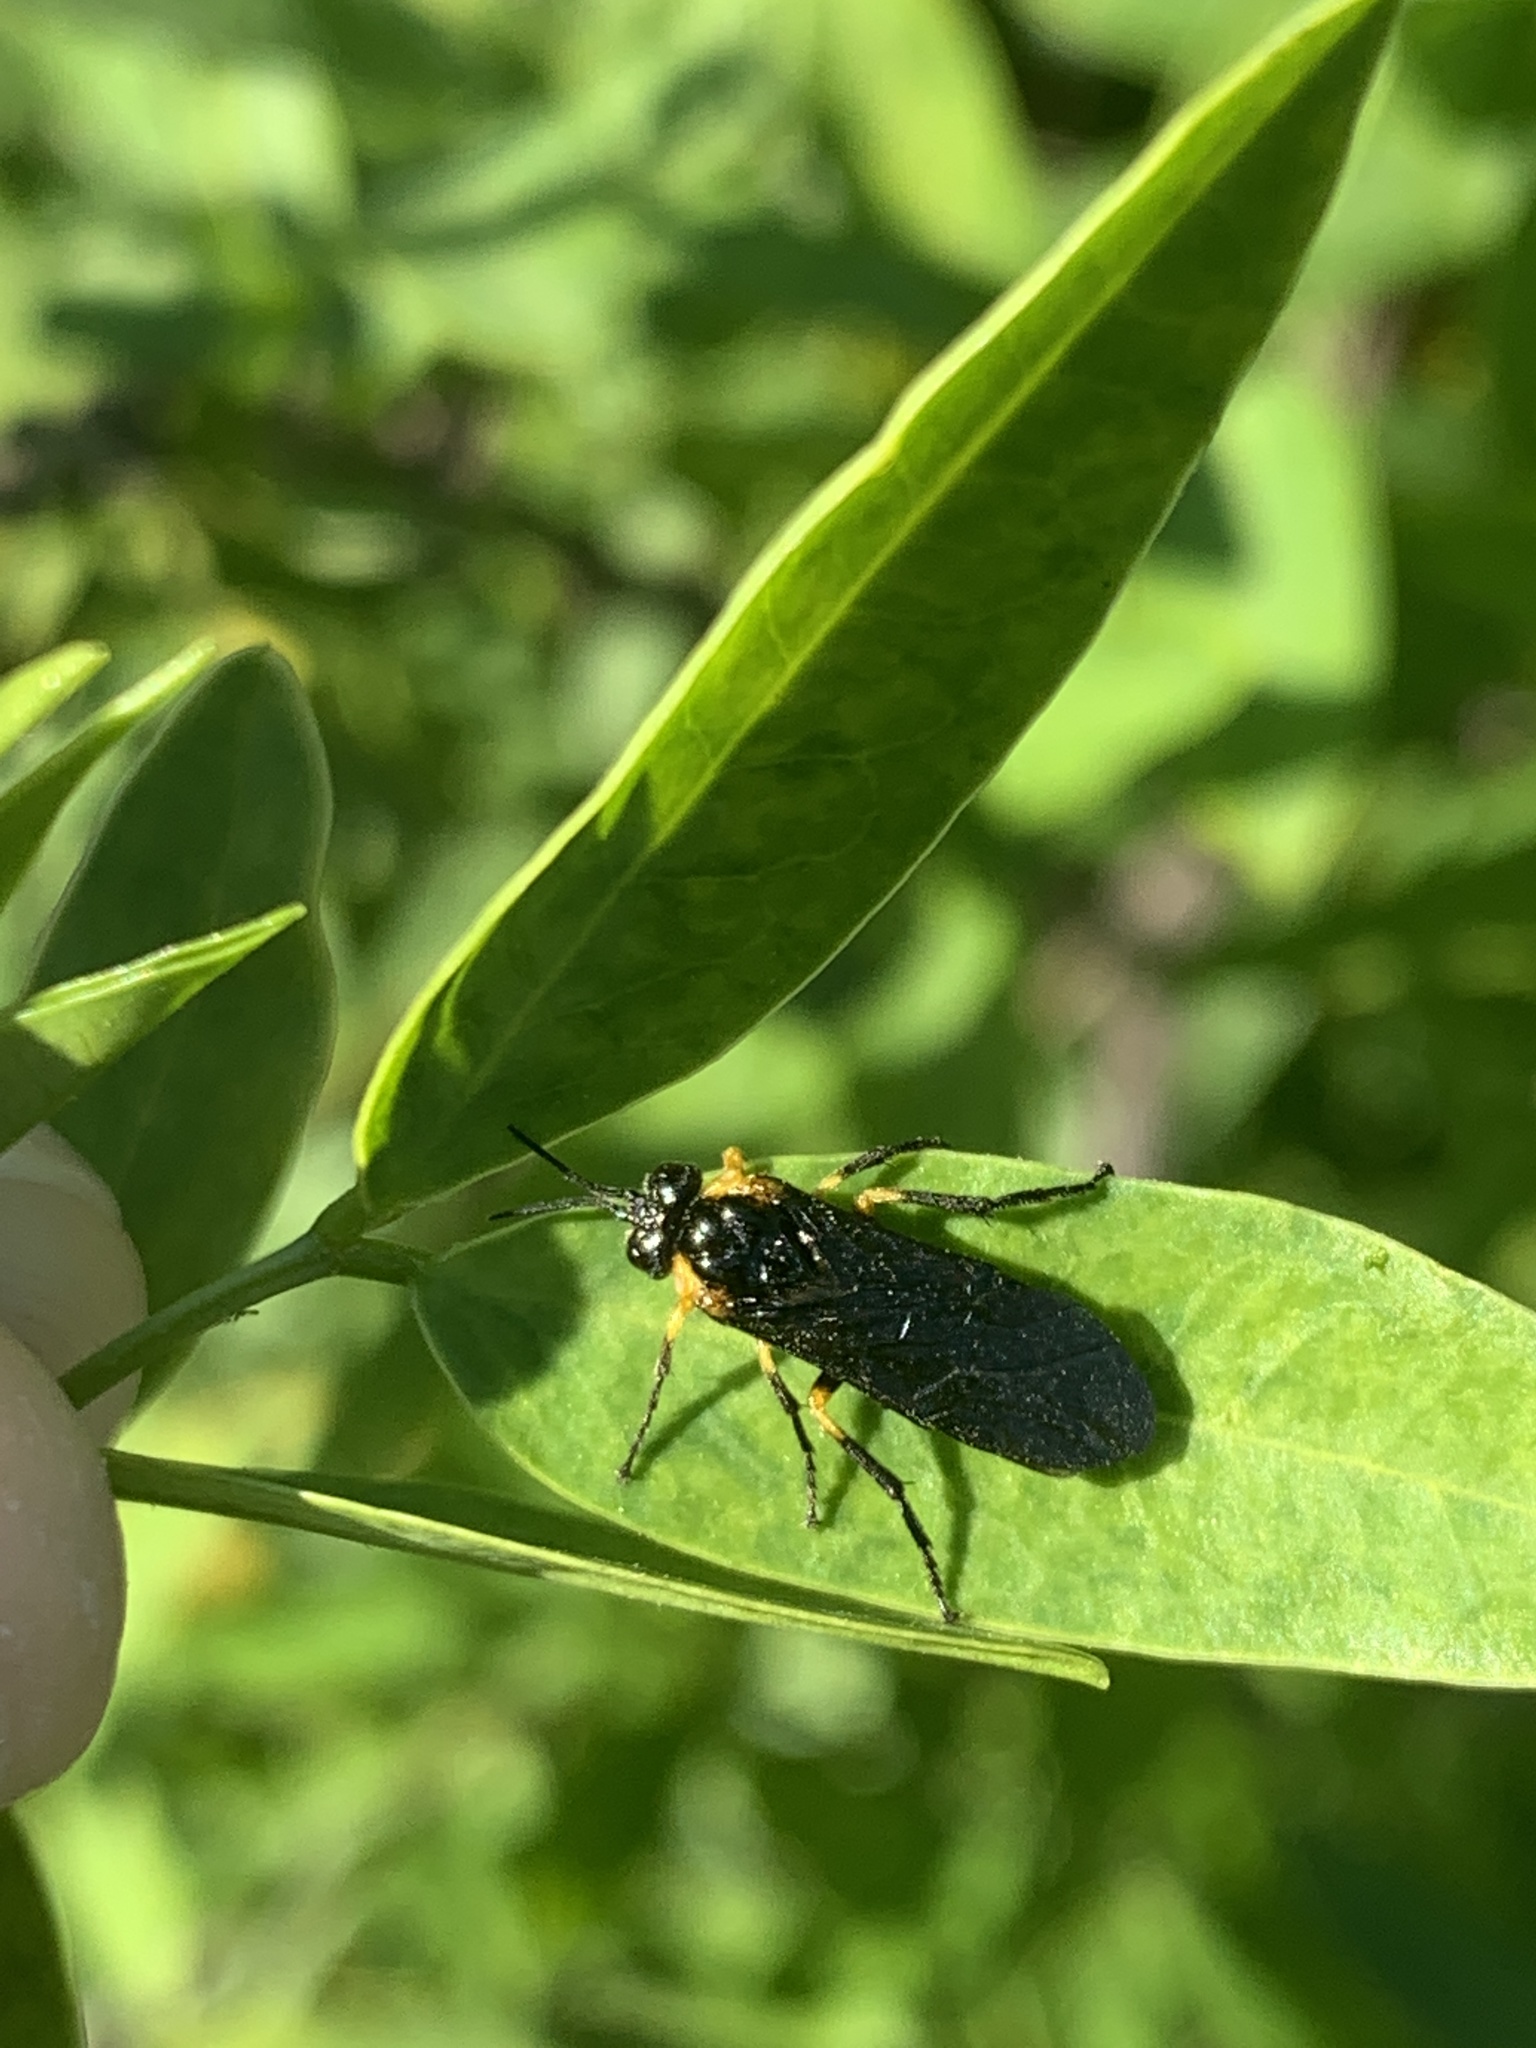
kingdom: Animalia
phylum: Arthropoda
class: Insecta
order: Hymenoptera
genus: Adurgoa
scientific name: Adurgoa
